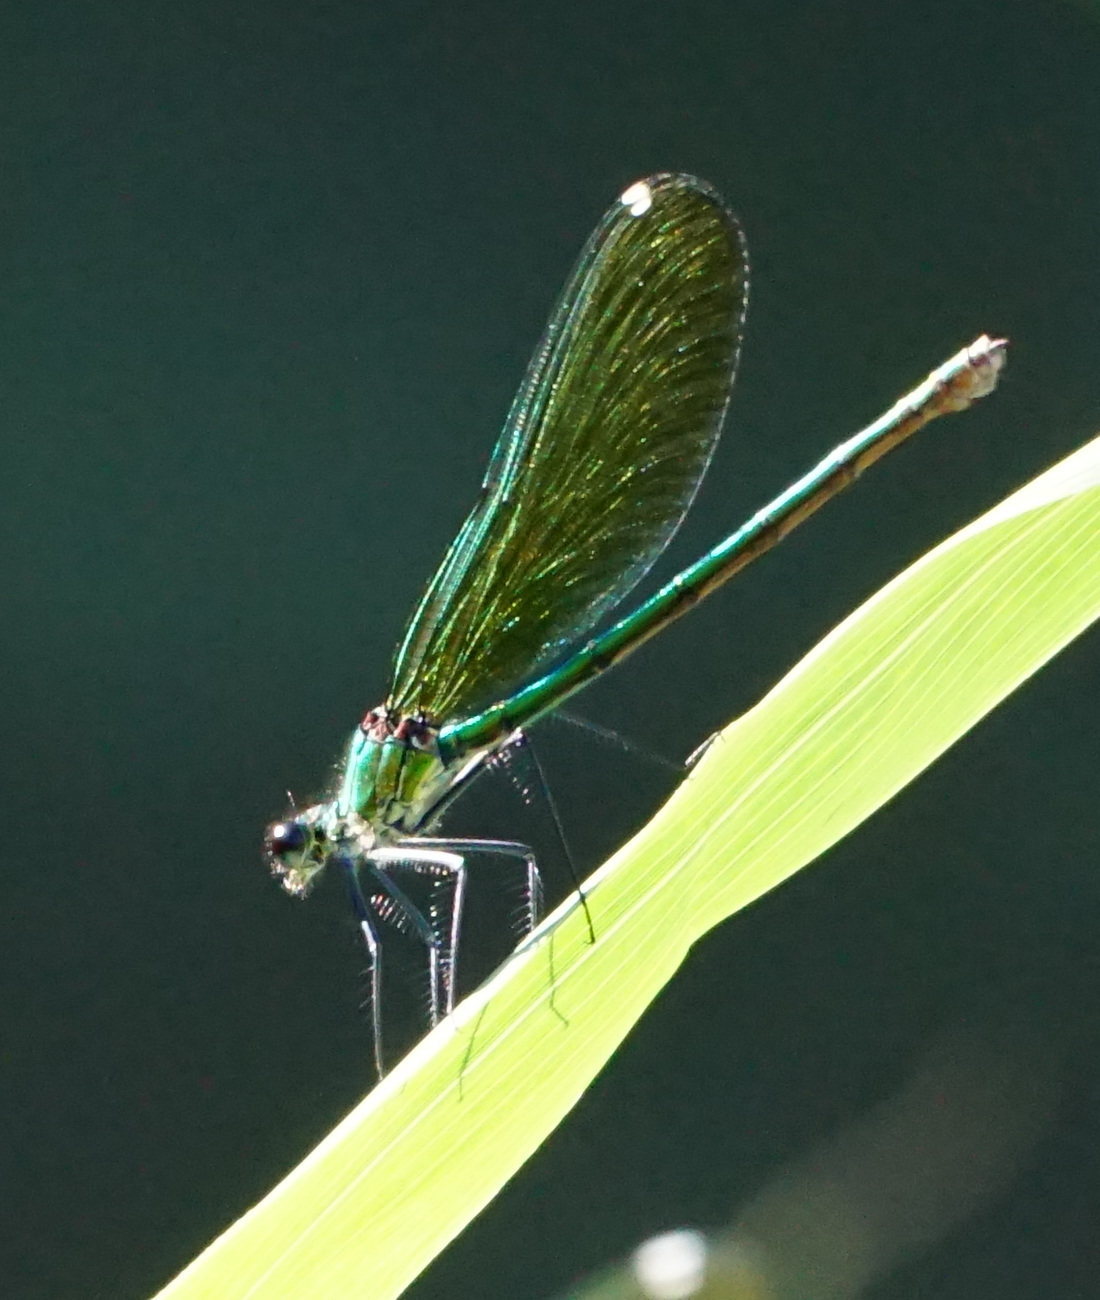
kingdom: Animalia
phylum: Arthropoda
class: Insecta
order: Odonata
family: Calopterygidae
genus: Calopteryx
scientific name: Calopteryx splendens
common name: Banded demoiselle
